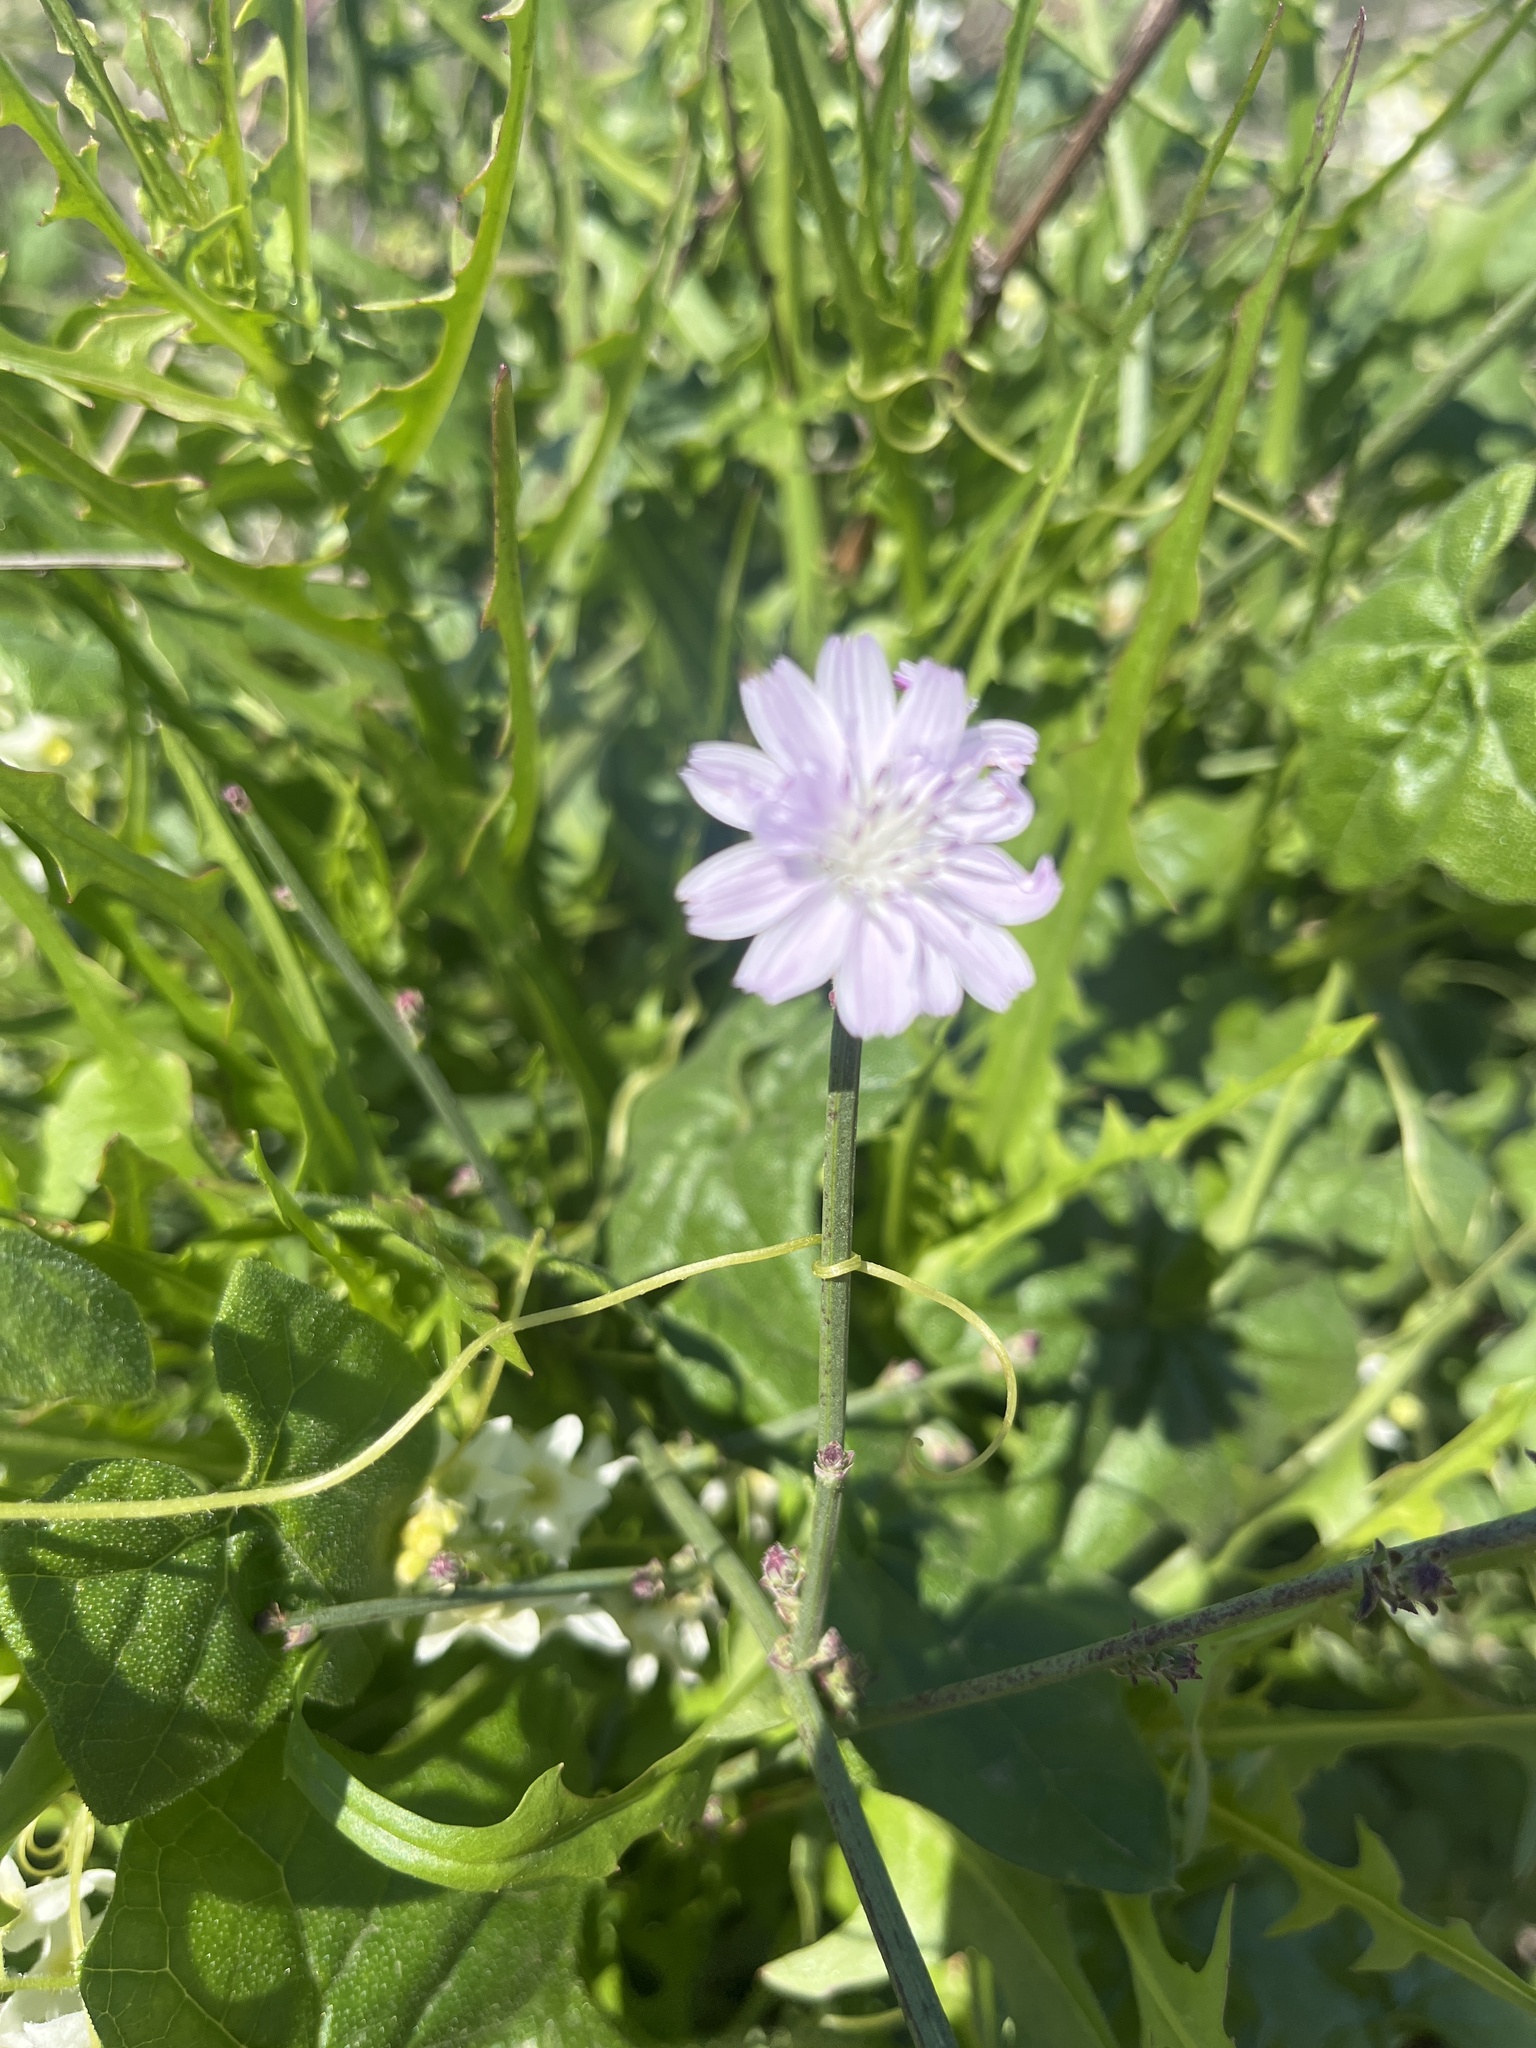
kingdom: Plantae
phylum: Tracheophyta
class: Magnoliopsida
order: Asterales
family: Asteraceae
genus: Stephanomeria
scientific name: Stephanomeria diegensis
